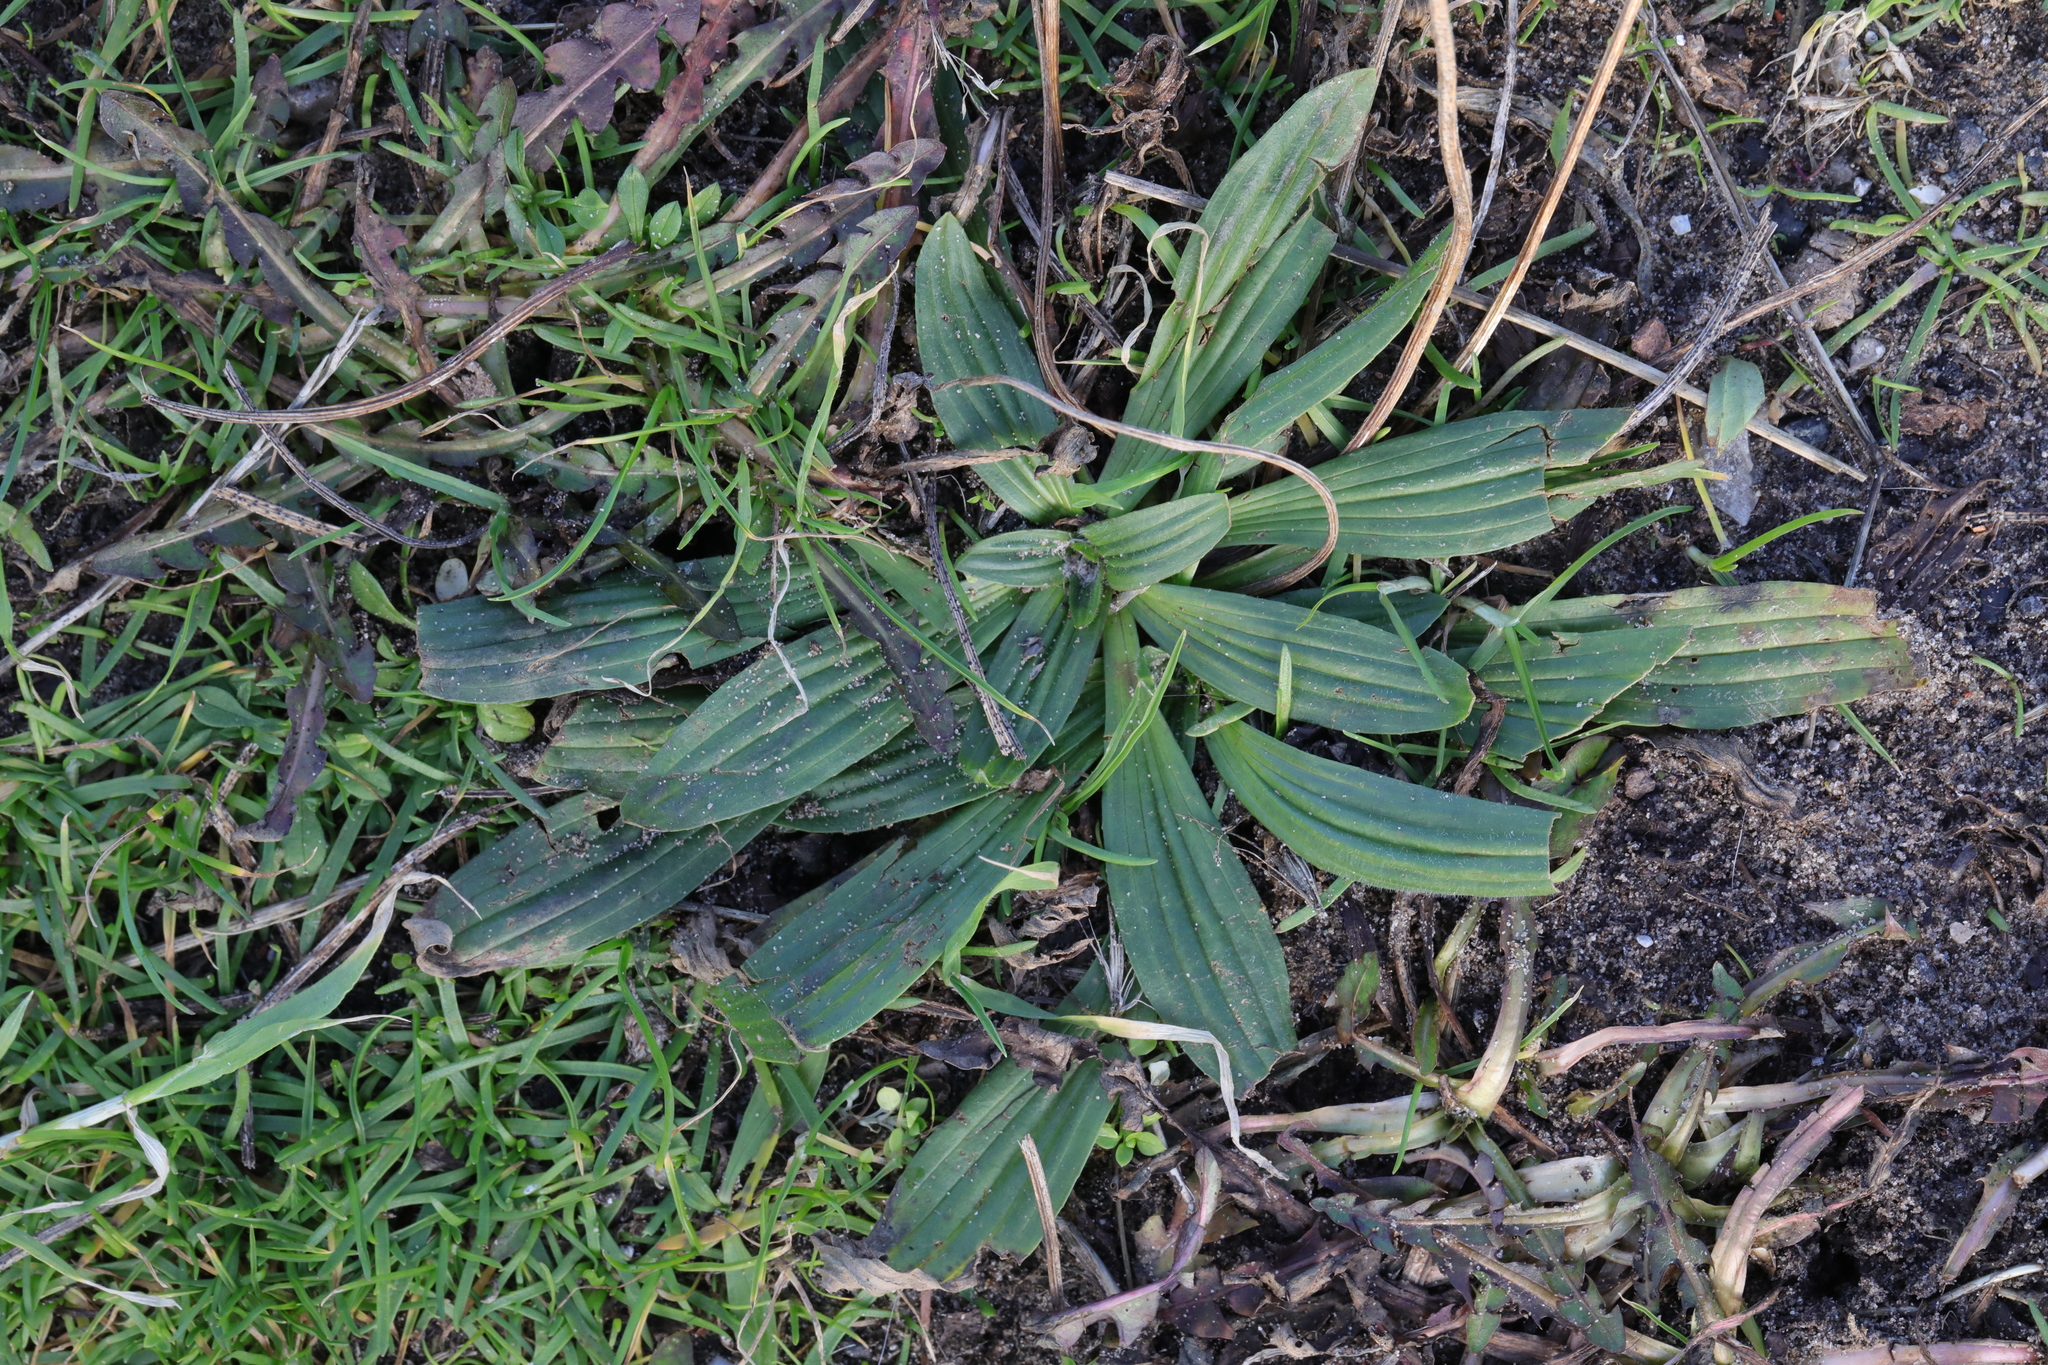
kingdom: Plantae
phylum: Tracheophyta
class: Magnoliopsida
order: Lamiales
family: Plantaginaceae
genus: Plantago
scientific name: Plantago lanceolata
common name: Ribwort plantain
